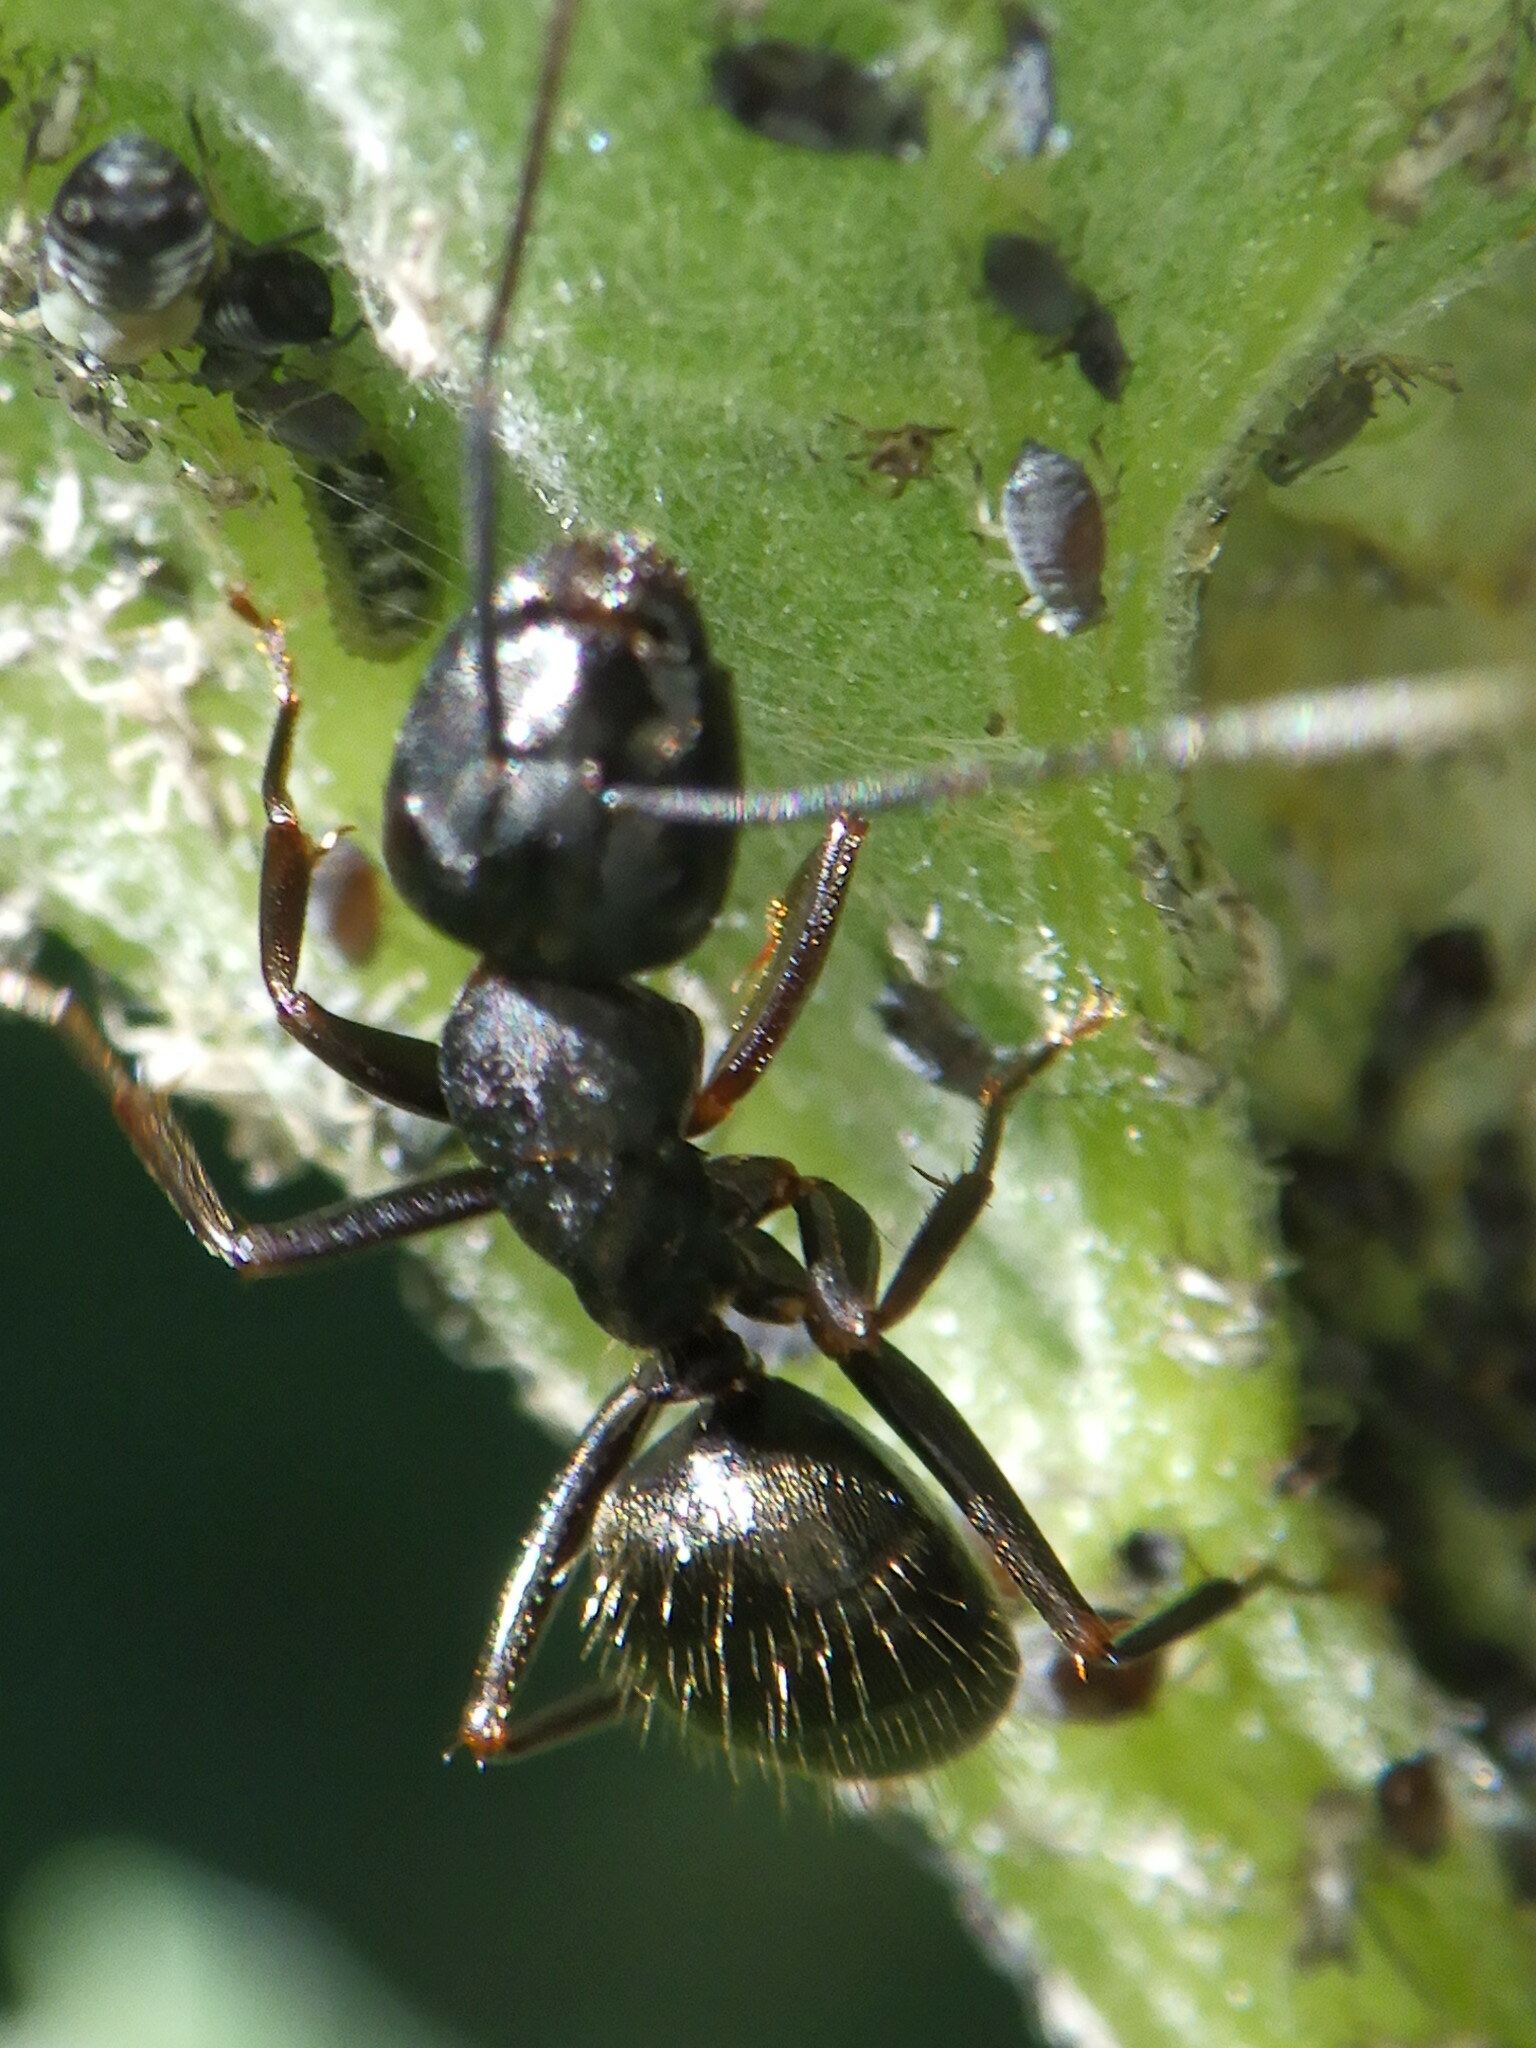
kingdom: Animalia
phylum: Arthropoda
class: Insecta
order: Hymenoptera
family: Formicidae
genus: Camponotus
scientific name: Camponotus pennsylvanicus
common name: Black carpenter ant
